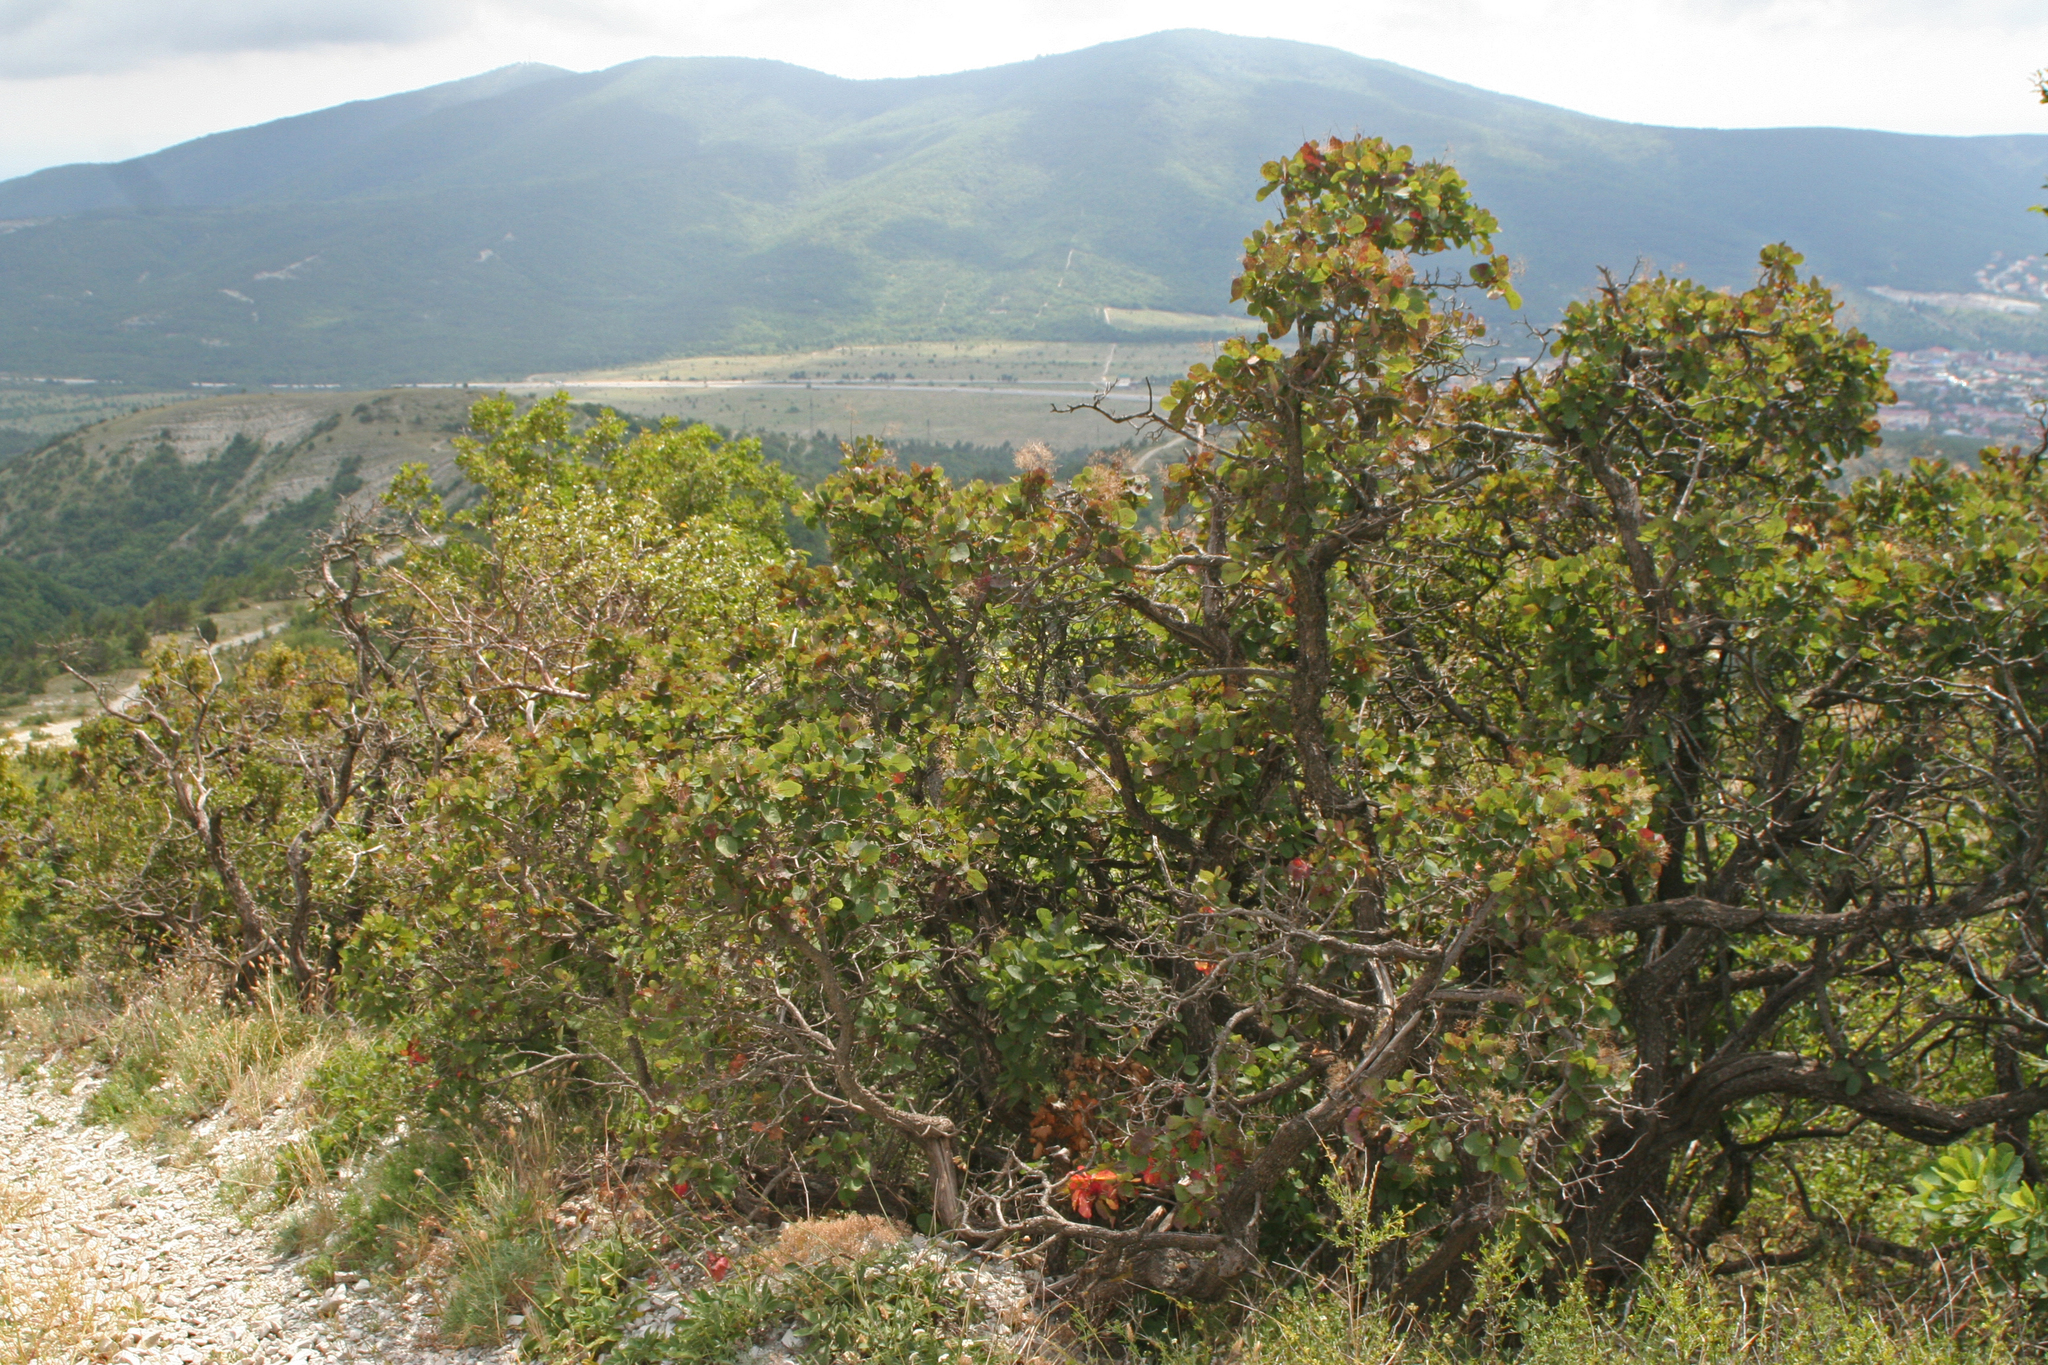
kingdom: Plantae
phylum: Tracheophyta
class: Magnoliopsida
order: Sapindales
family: Anacardiaceae
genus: Cotinus
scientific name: Cotinus coggygria
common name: Smoke-tree
